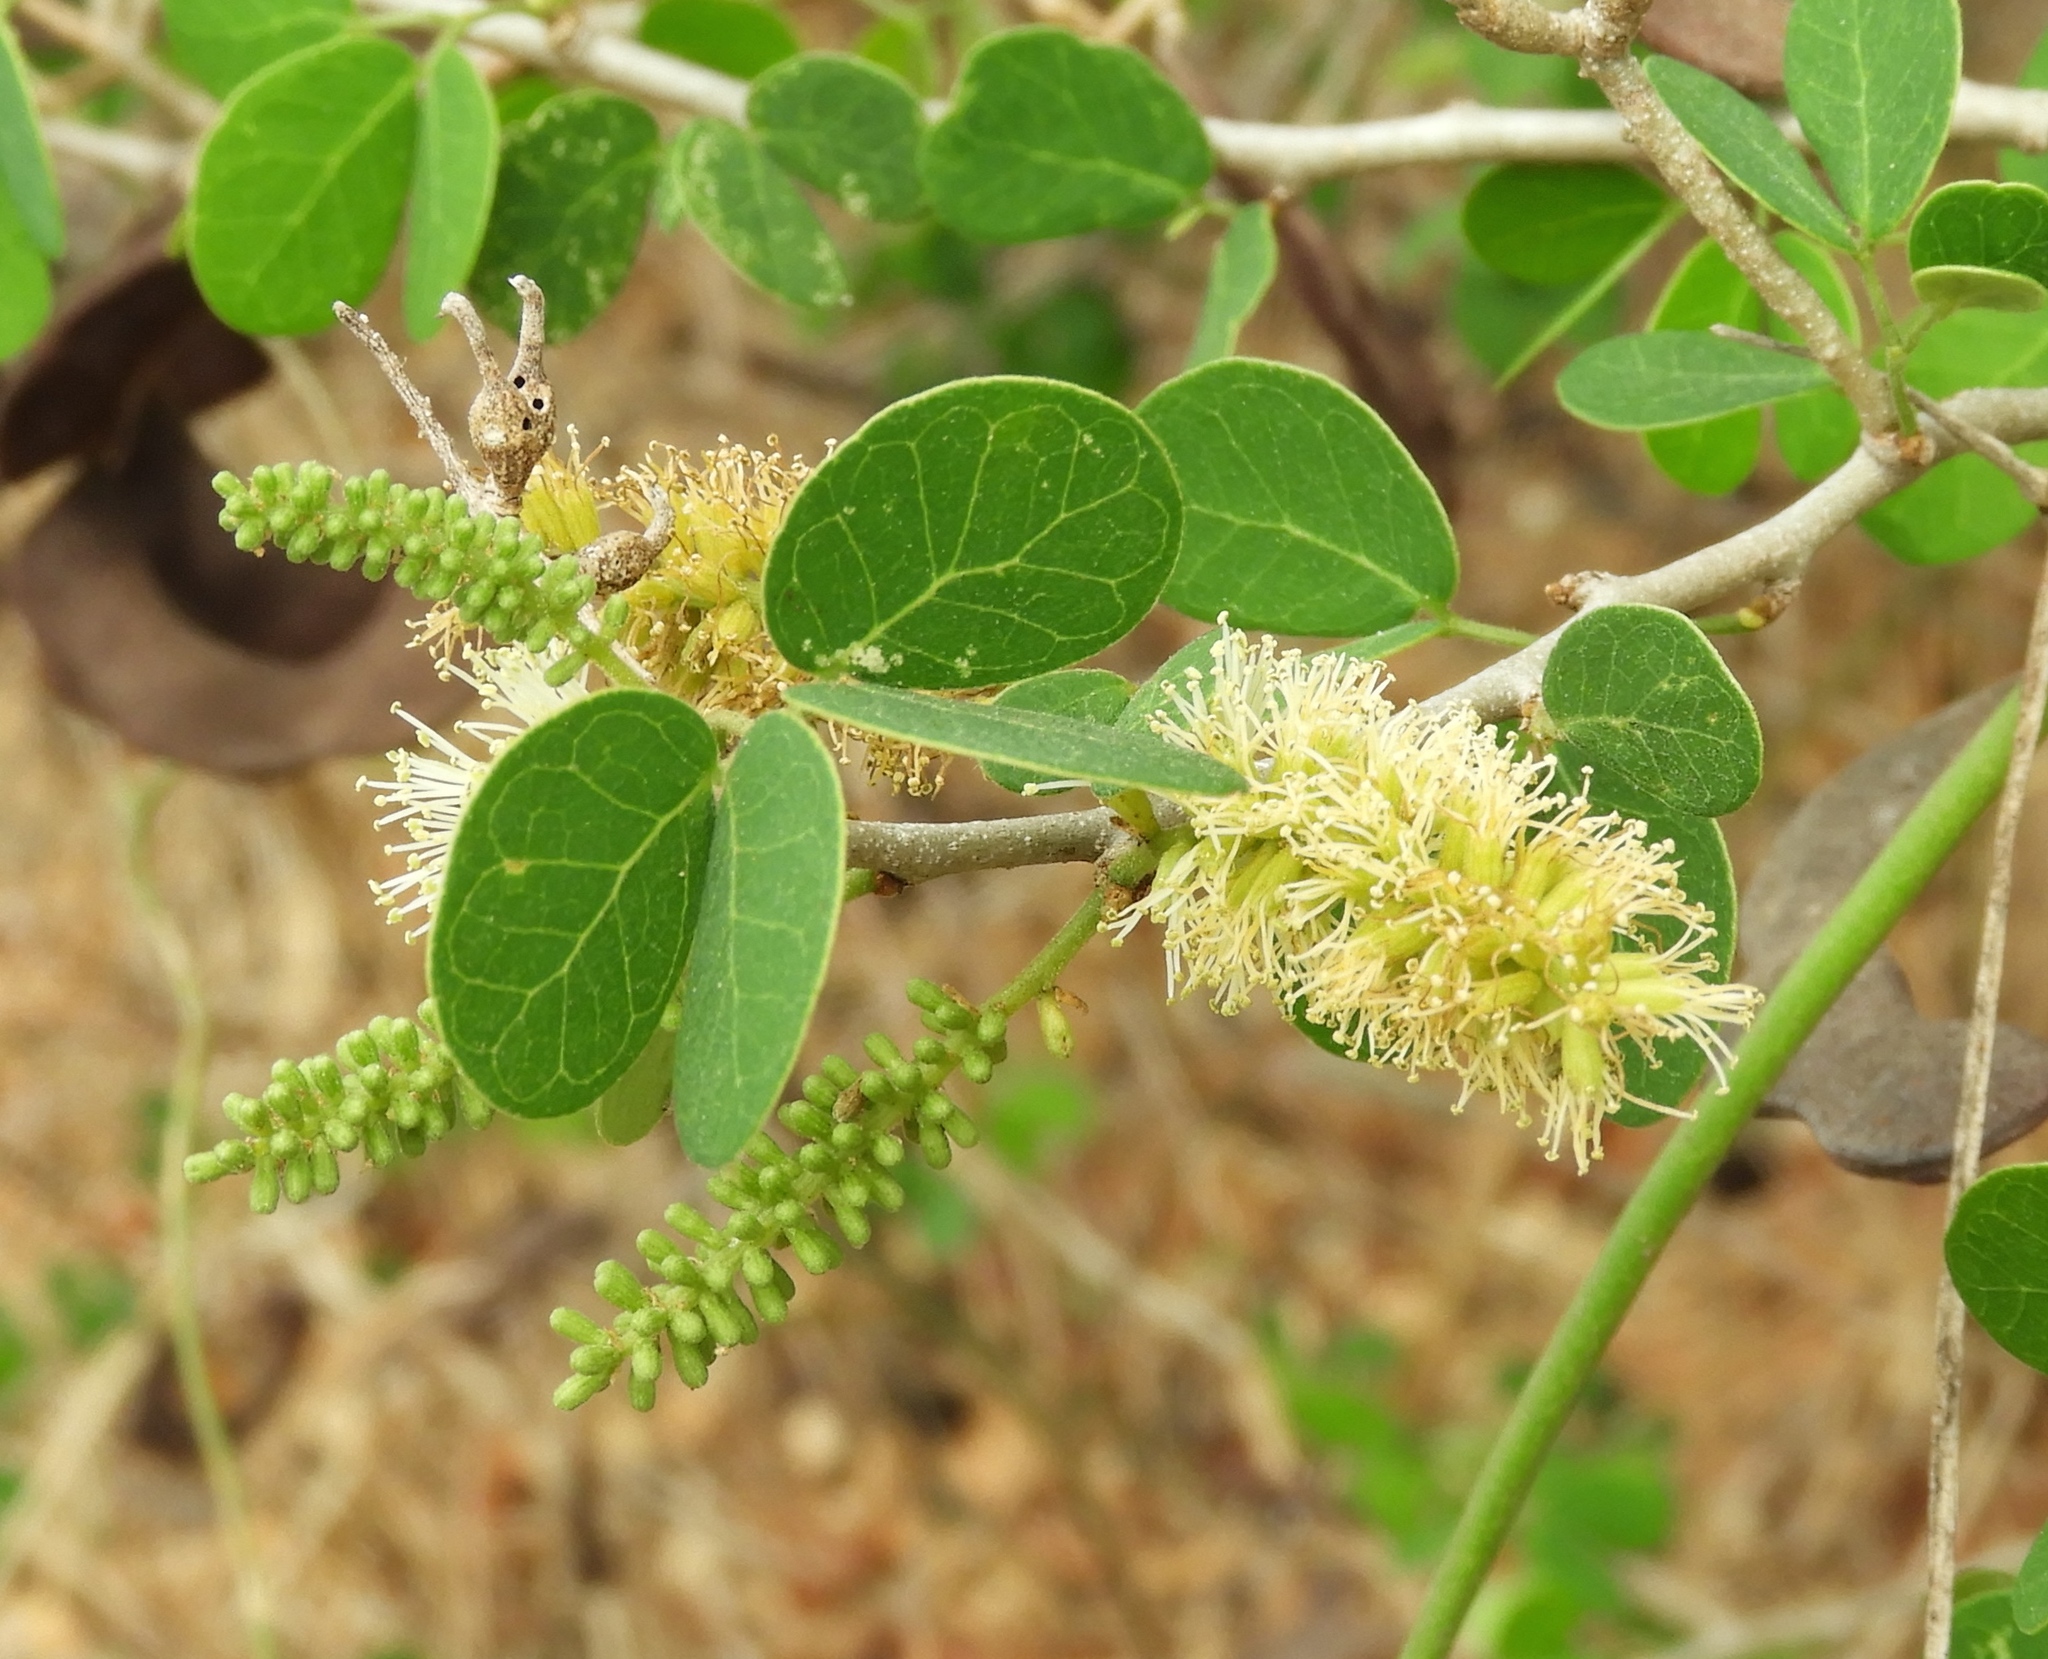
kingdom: Plantae
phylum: Tracheophyta
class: Magnoliopsida
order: Fabales
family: Fabaceae
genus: Microlobius
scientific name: Microlobius foetidus
